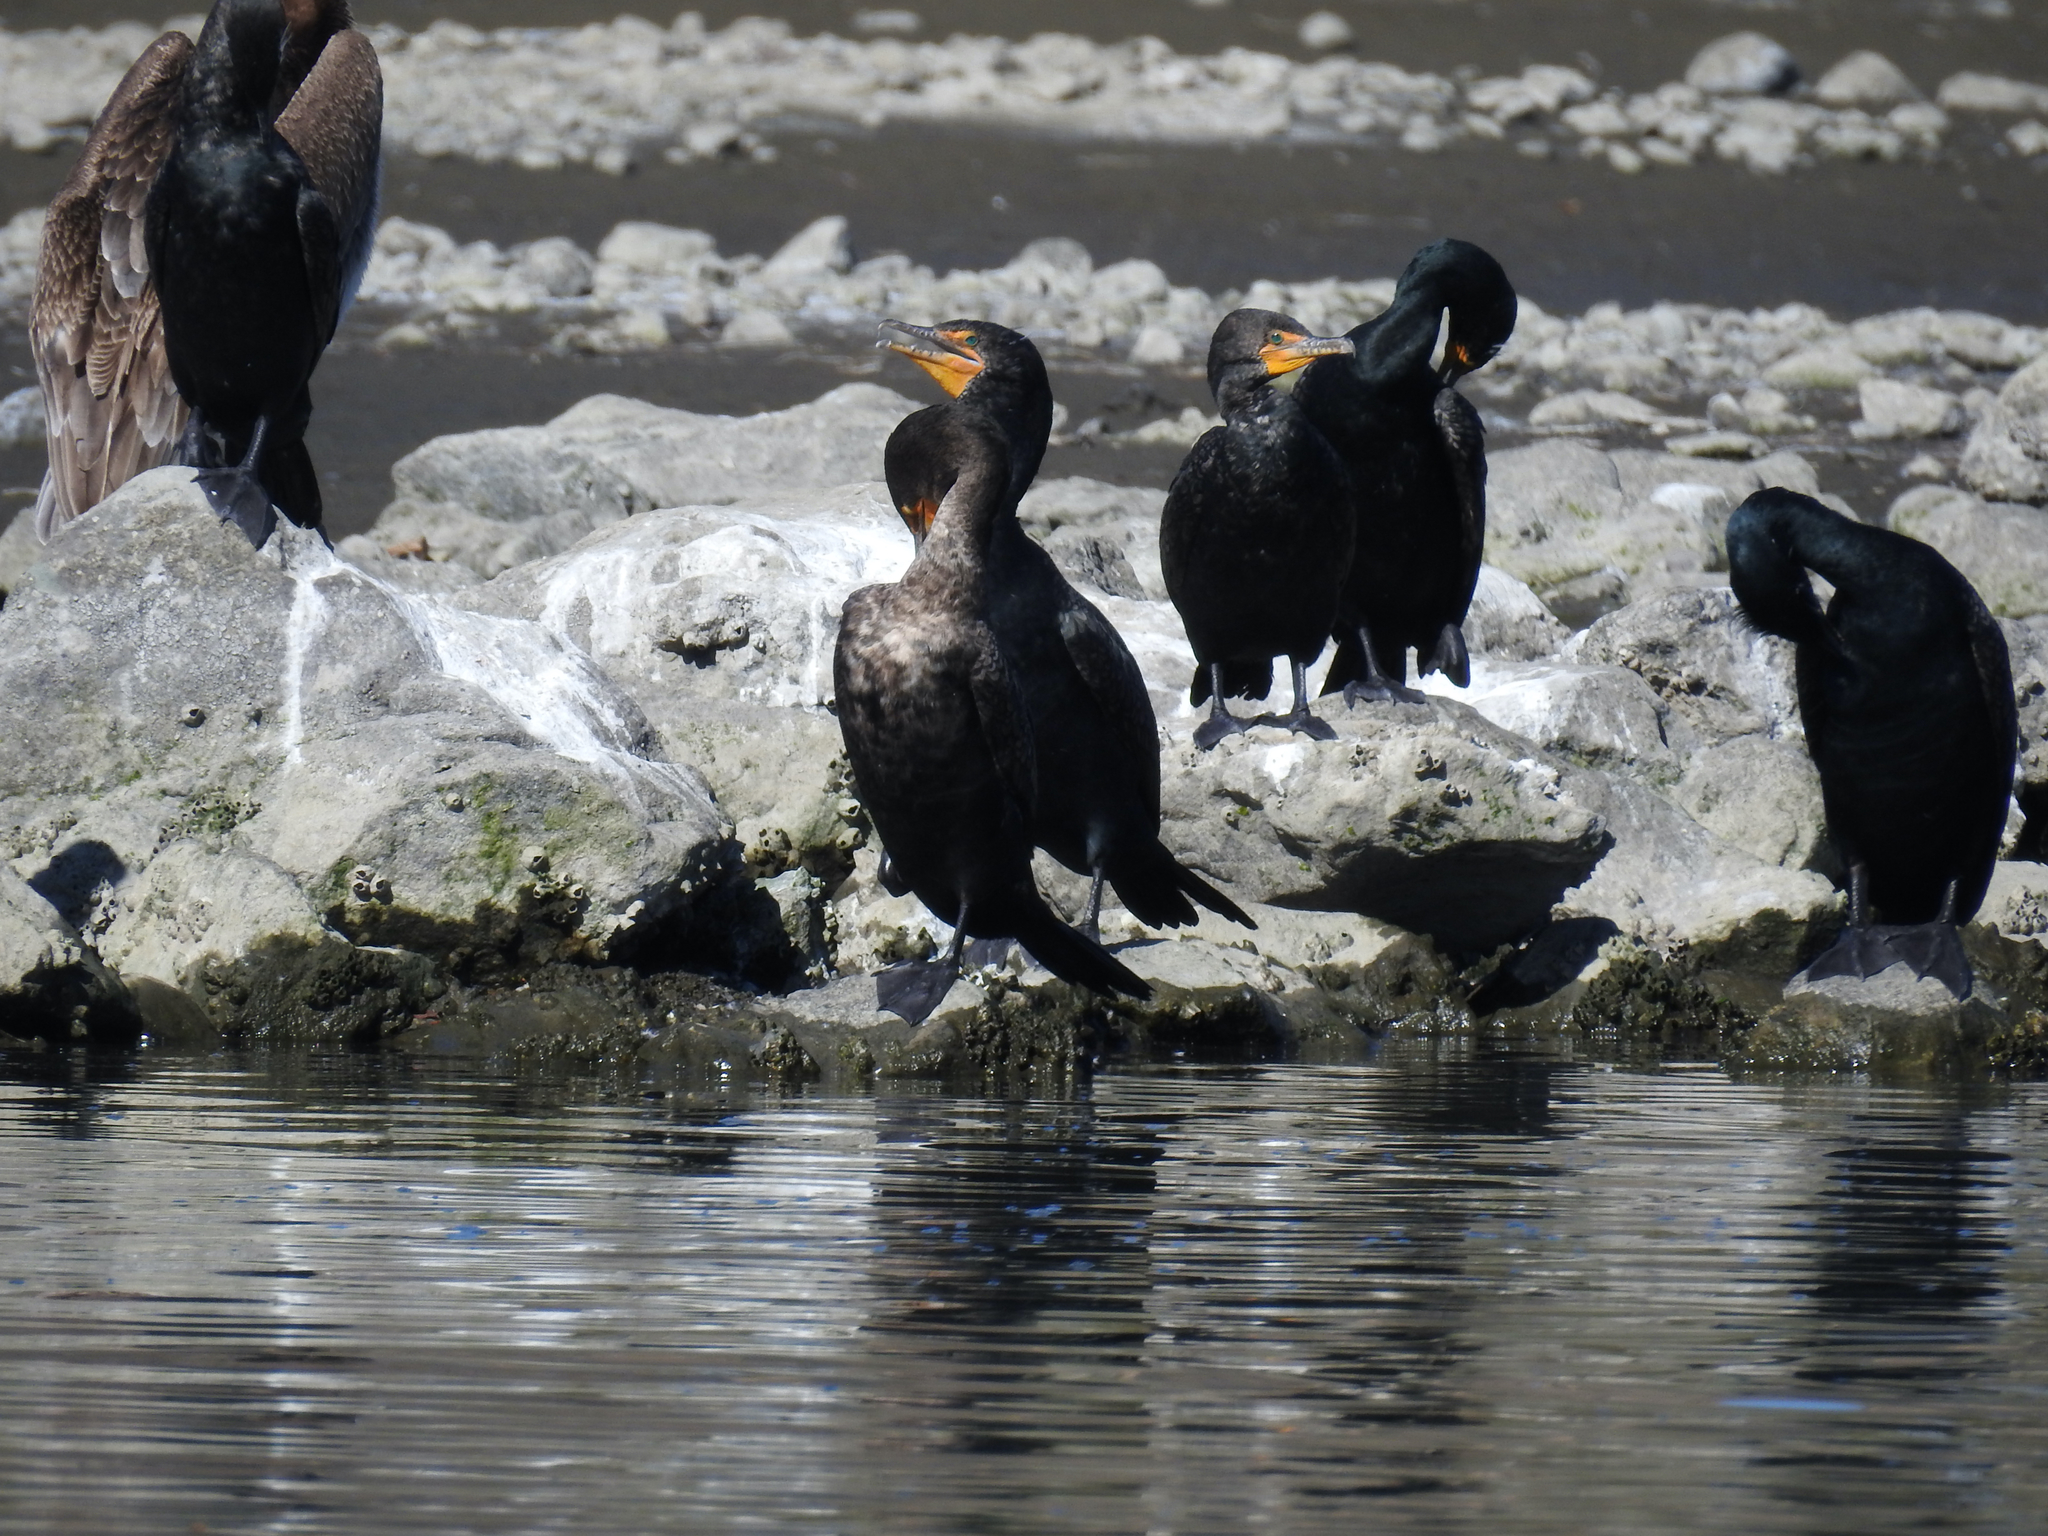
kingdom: Animalia
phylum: Chordata
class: Aves
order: Suliformes
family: Phalacrocoracidae
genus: Phalacrocorax
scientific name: Phalacrocorax auritus
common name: Double-crested cormorant
